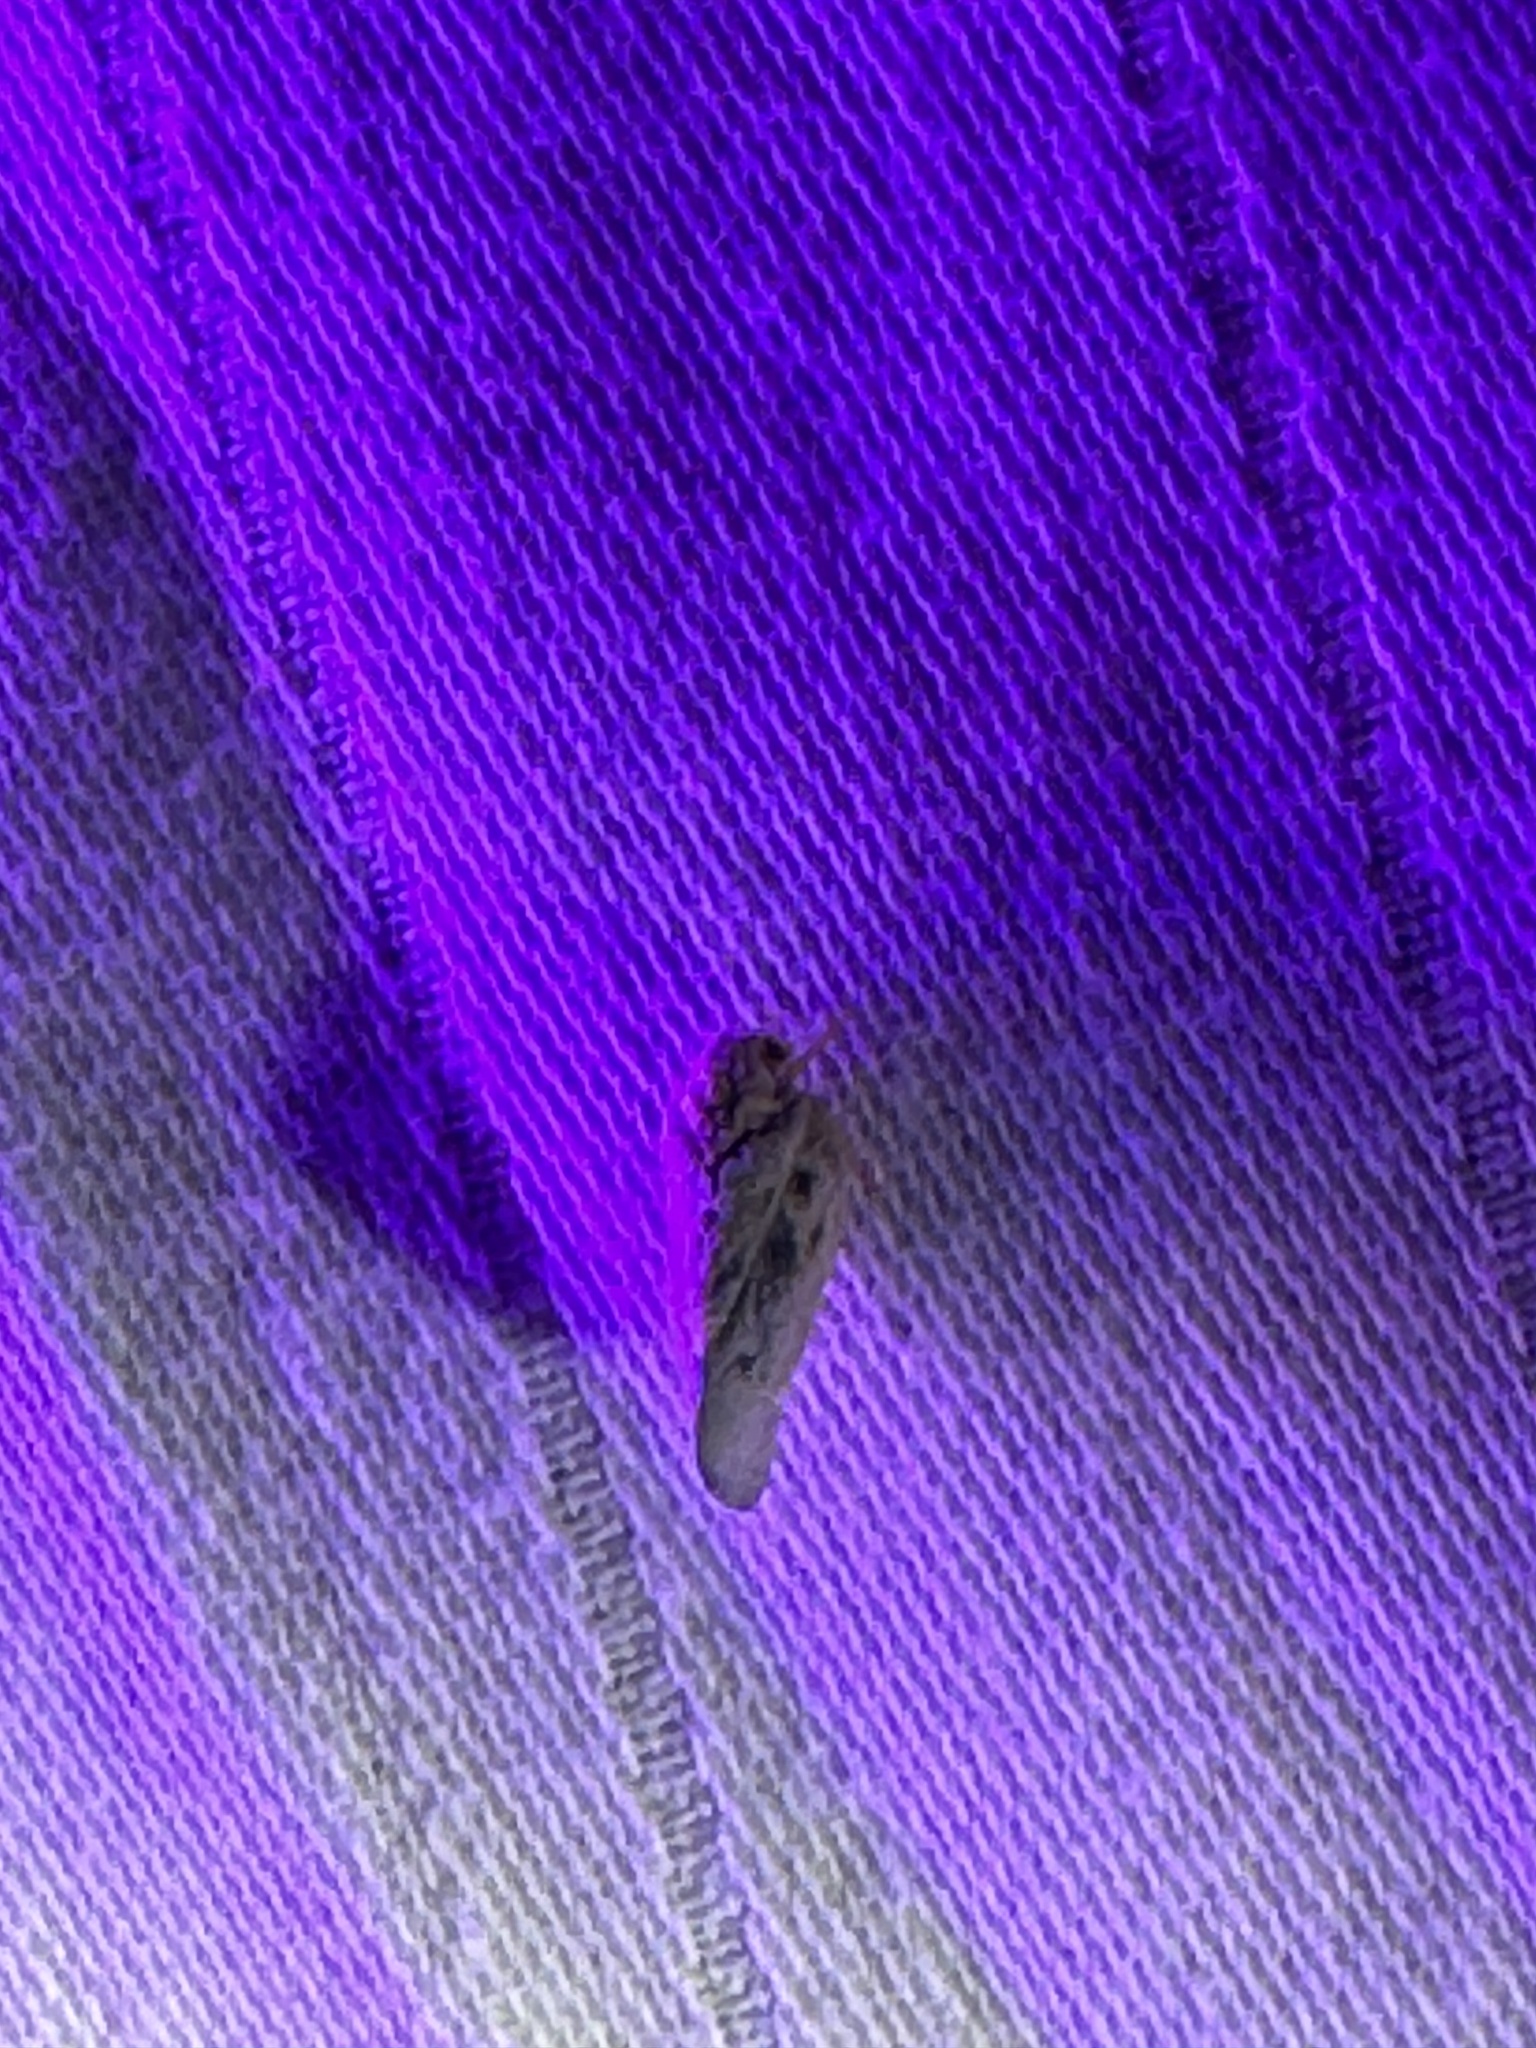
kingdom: Animalia
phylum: Arthropoda
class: Insecta
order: Hemiptera
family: Flatidae
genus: Metcalfa
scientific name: Metcalfa pruinosa
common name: Citrus flatid planthopper
